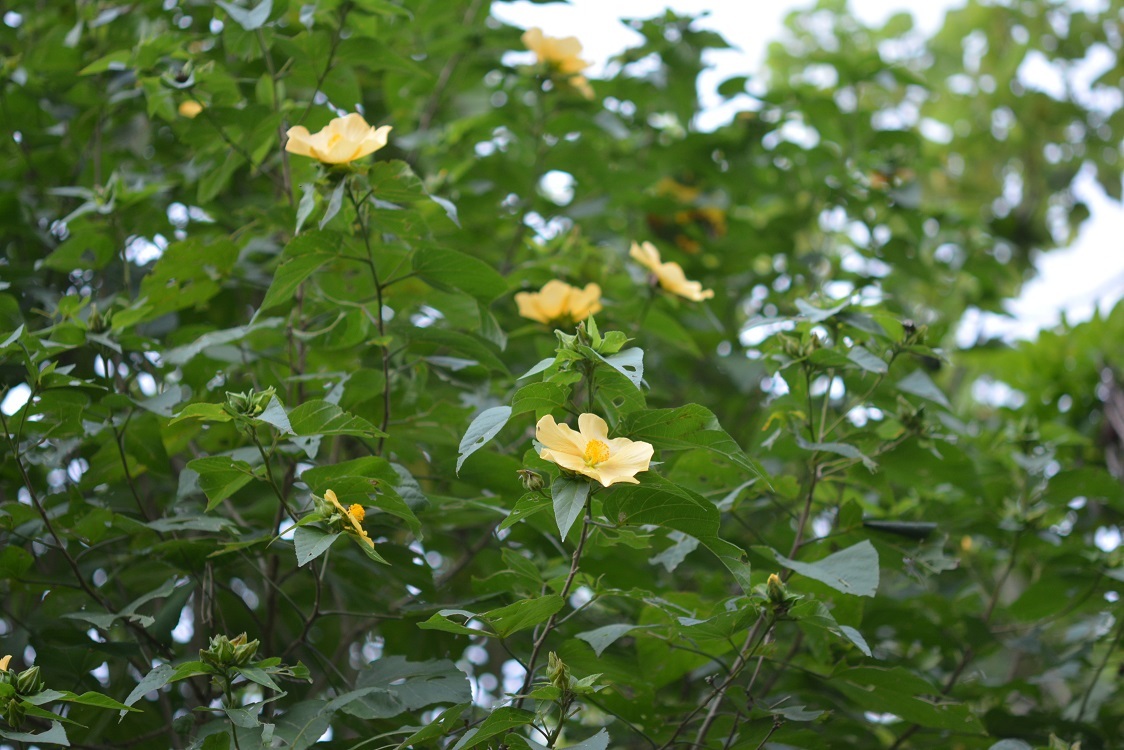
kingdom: Plantae
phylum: Tracheophyta
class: Magnoliopsida
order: Malvales
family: Malvaceae
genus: Dendrosida
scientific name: Dendrosida sharpiana
